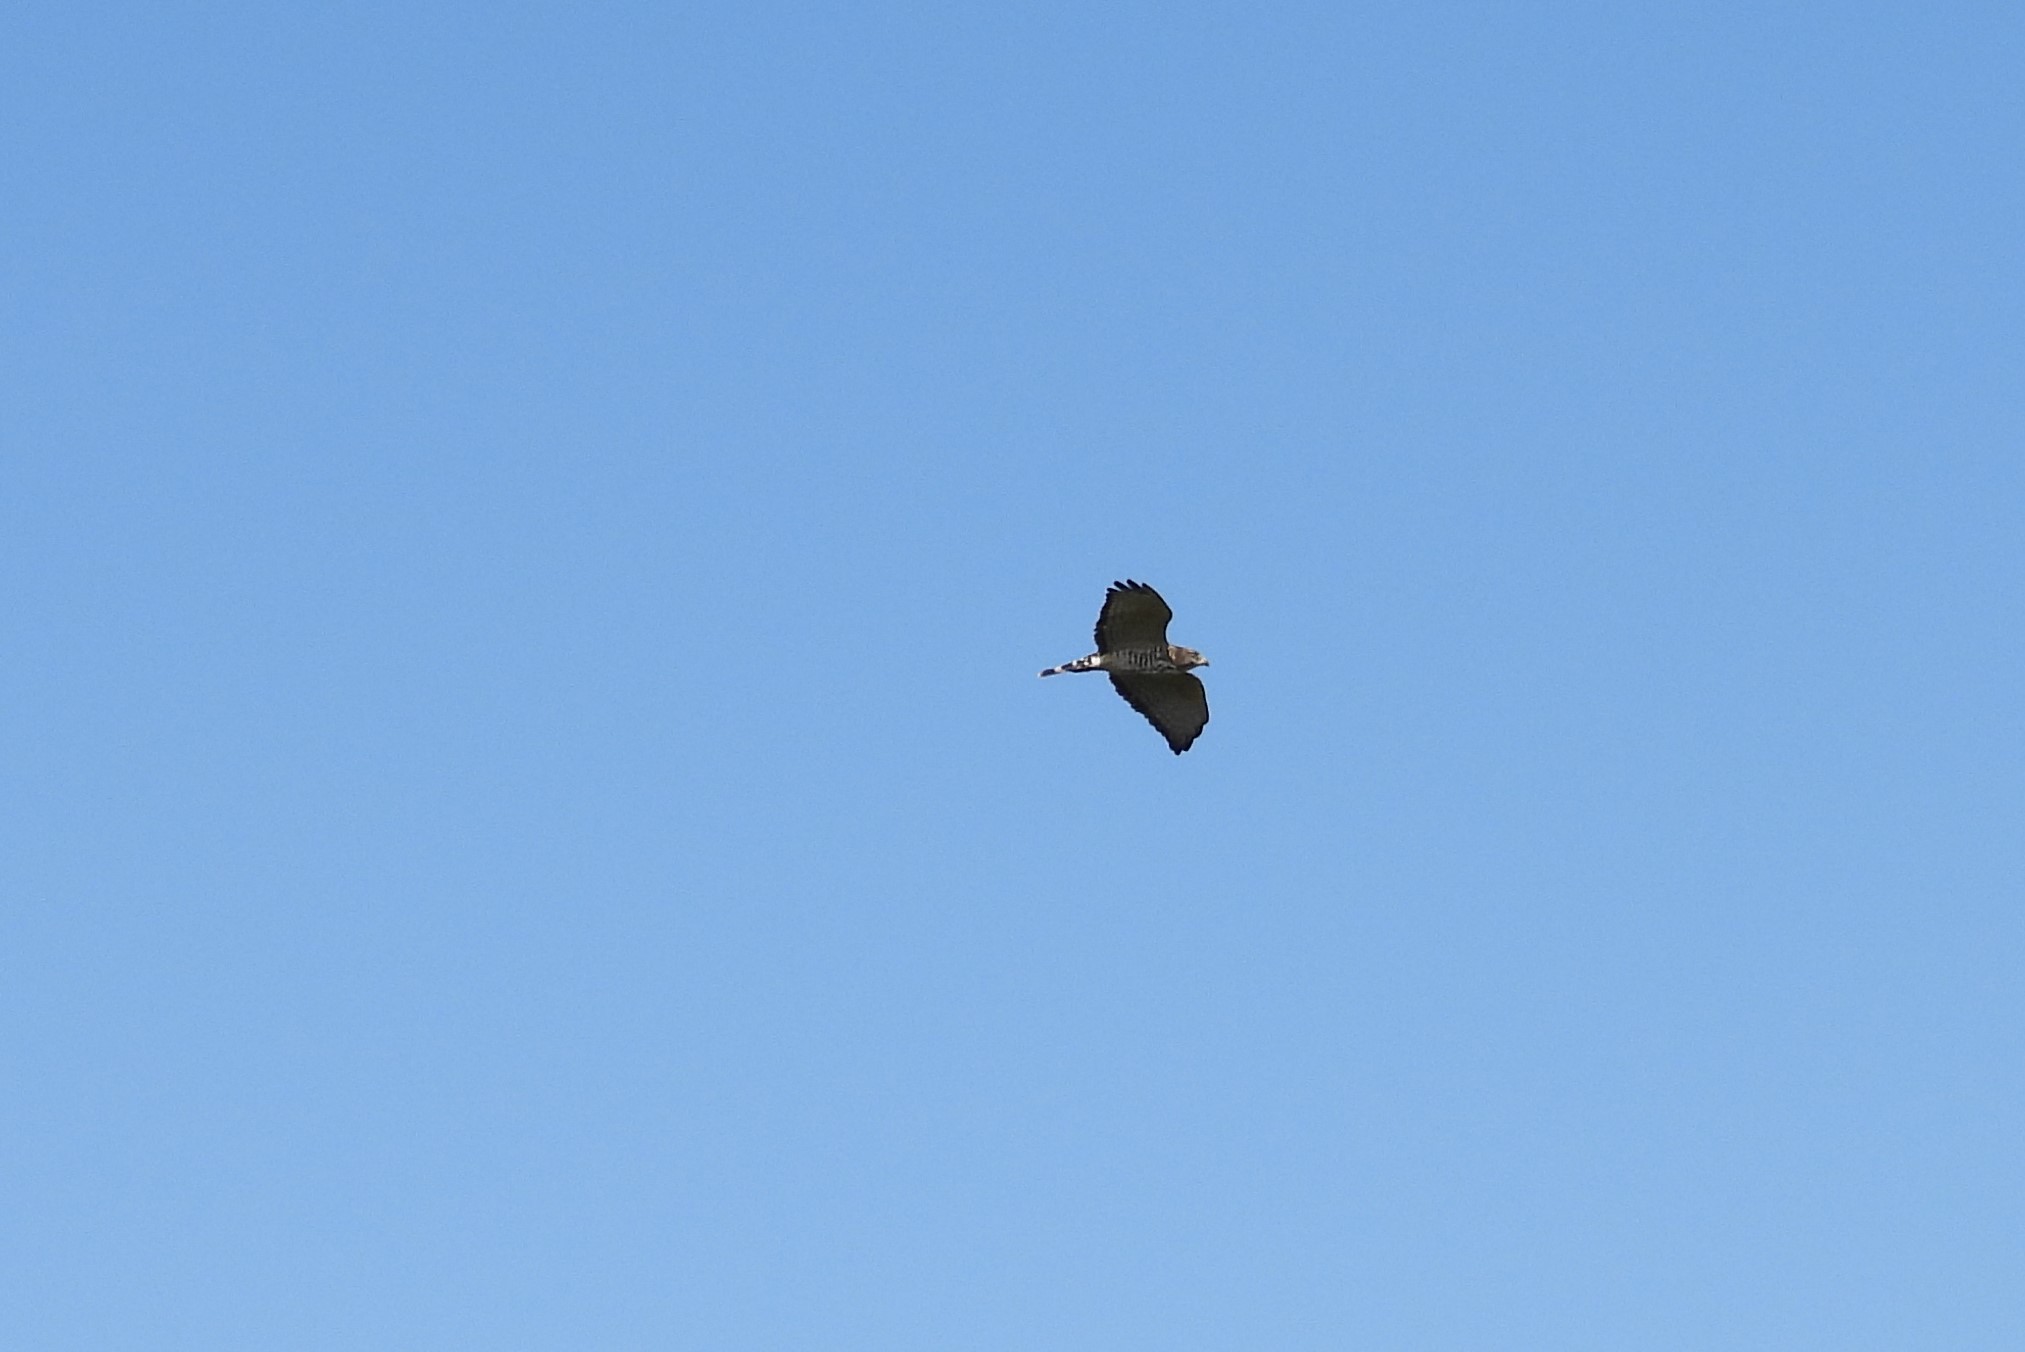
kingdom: Animalia
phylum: Chordata
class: Aves
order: Accipitriformes
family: Accipitridae
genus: Buteo
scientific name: Buteo platypterus
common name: Broad-winged hawk
